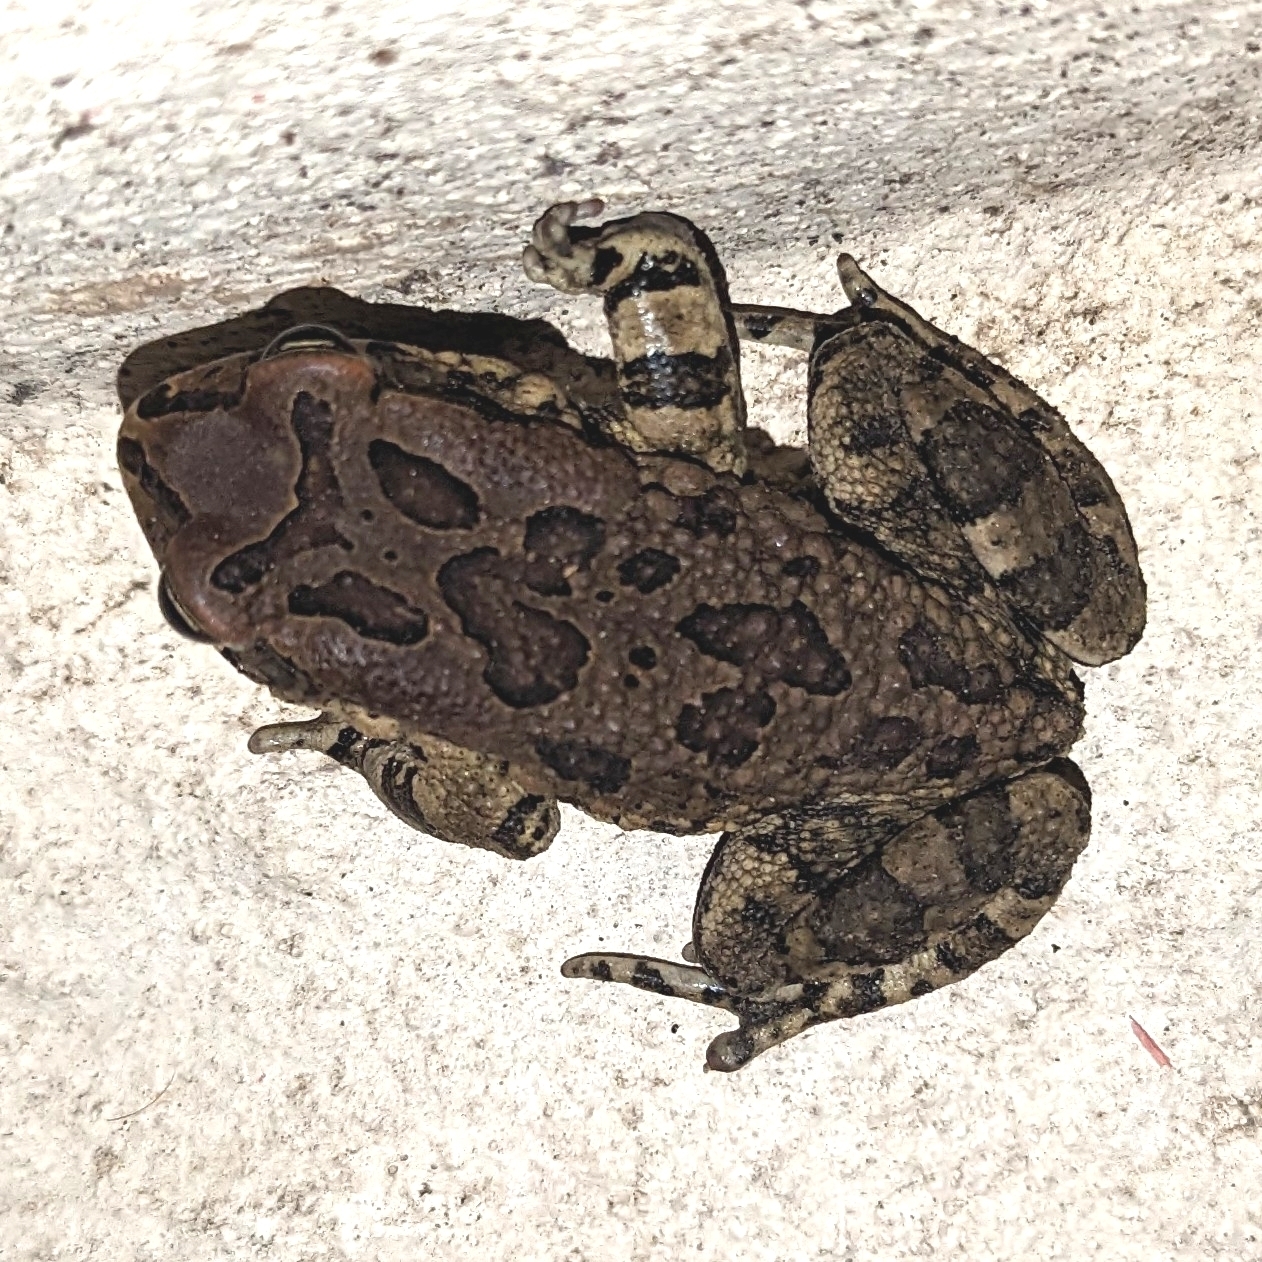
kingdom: Animalia
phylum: Chordata
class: Amphibia
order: Anura
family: Bufonidae
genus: Sclerophrys
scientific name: Sclerophrys capensis
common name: Ranger’s toad
